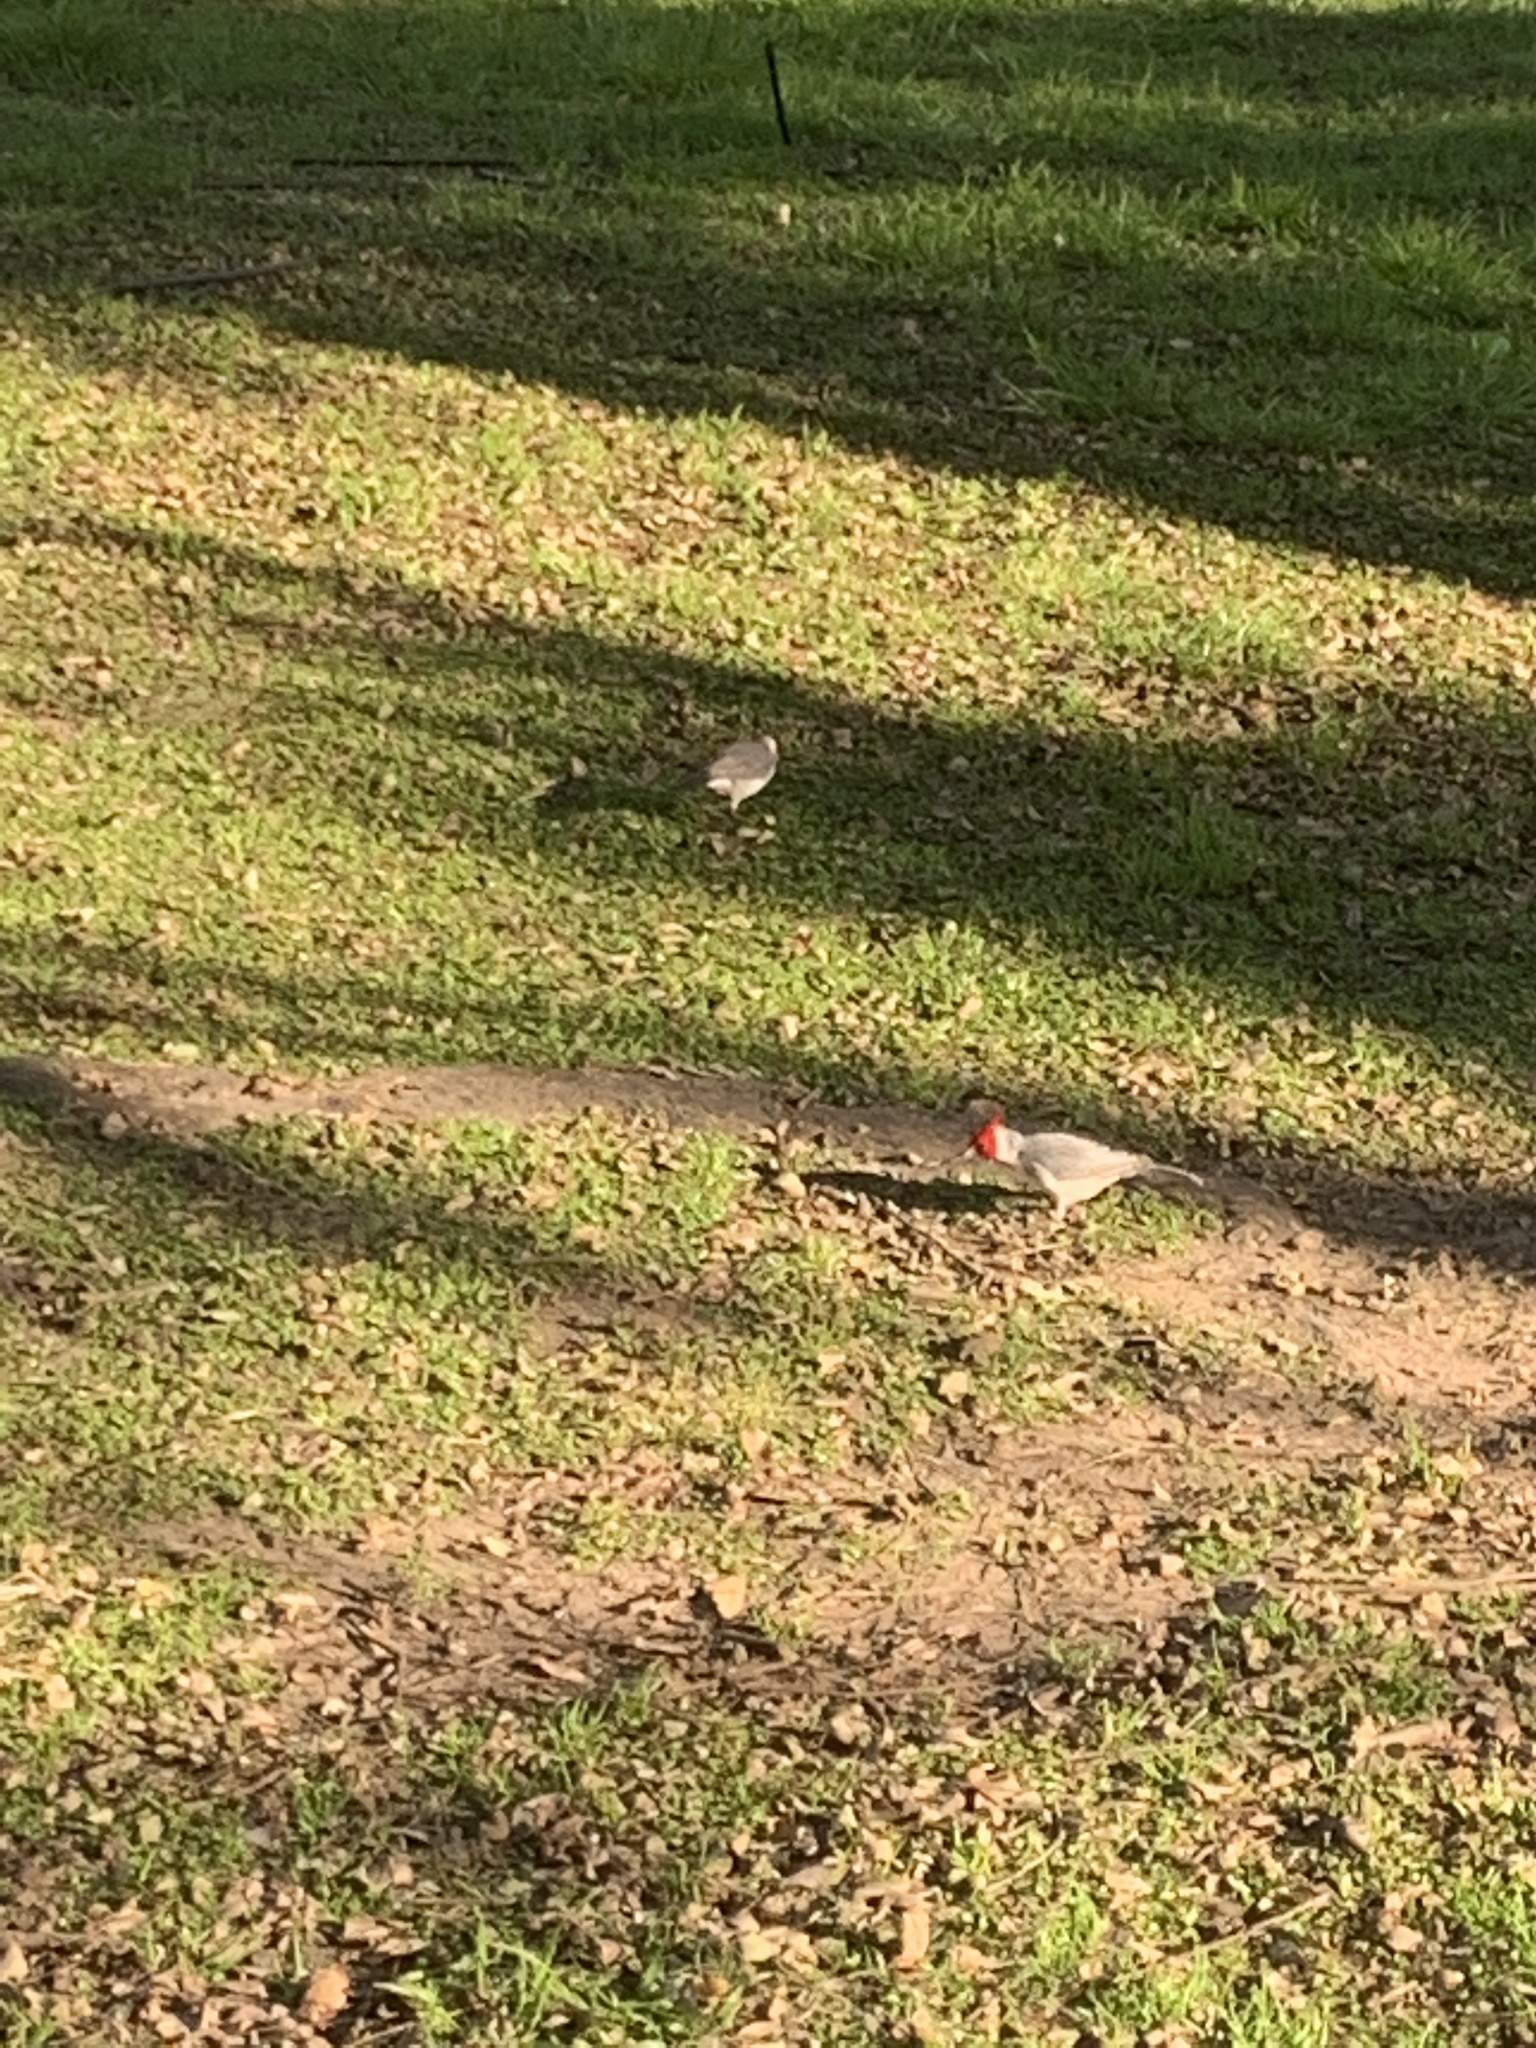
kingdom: Animalia
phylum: Chordata
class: Aves
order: Passeriformes
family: Thraupidae
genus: Paroaria
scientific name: Paroaria coronata
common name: Red-crested cardinal
